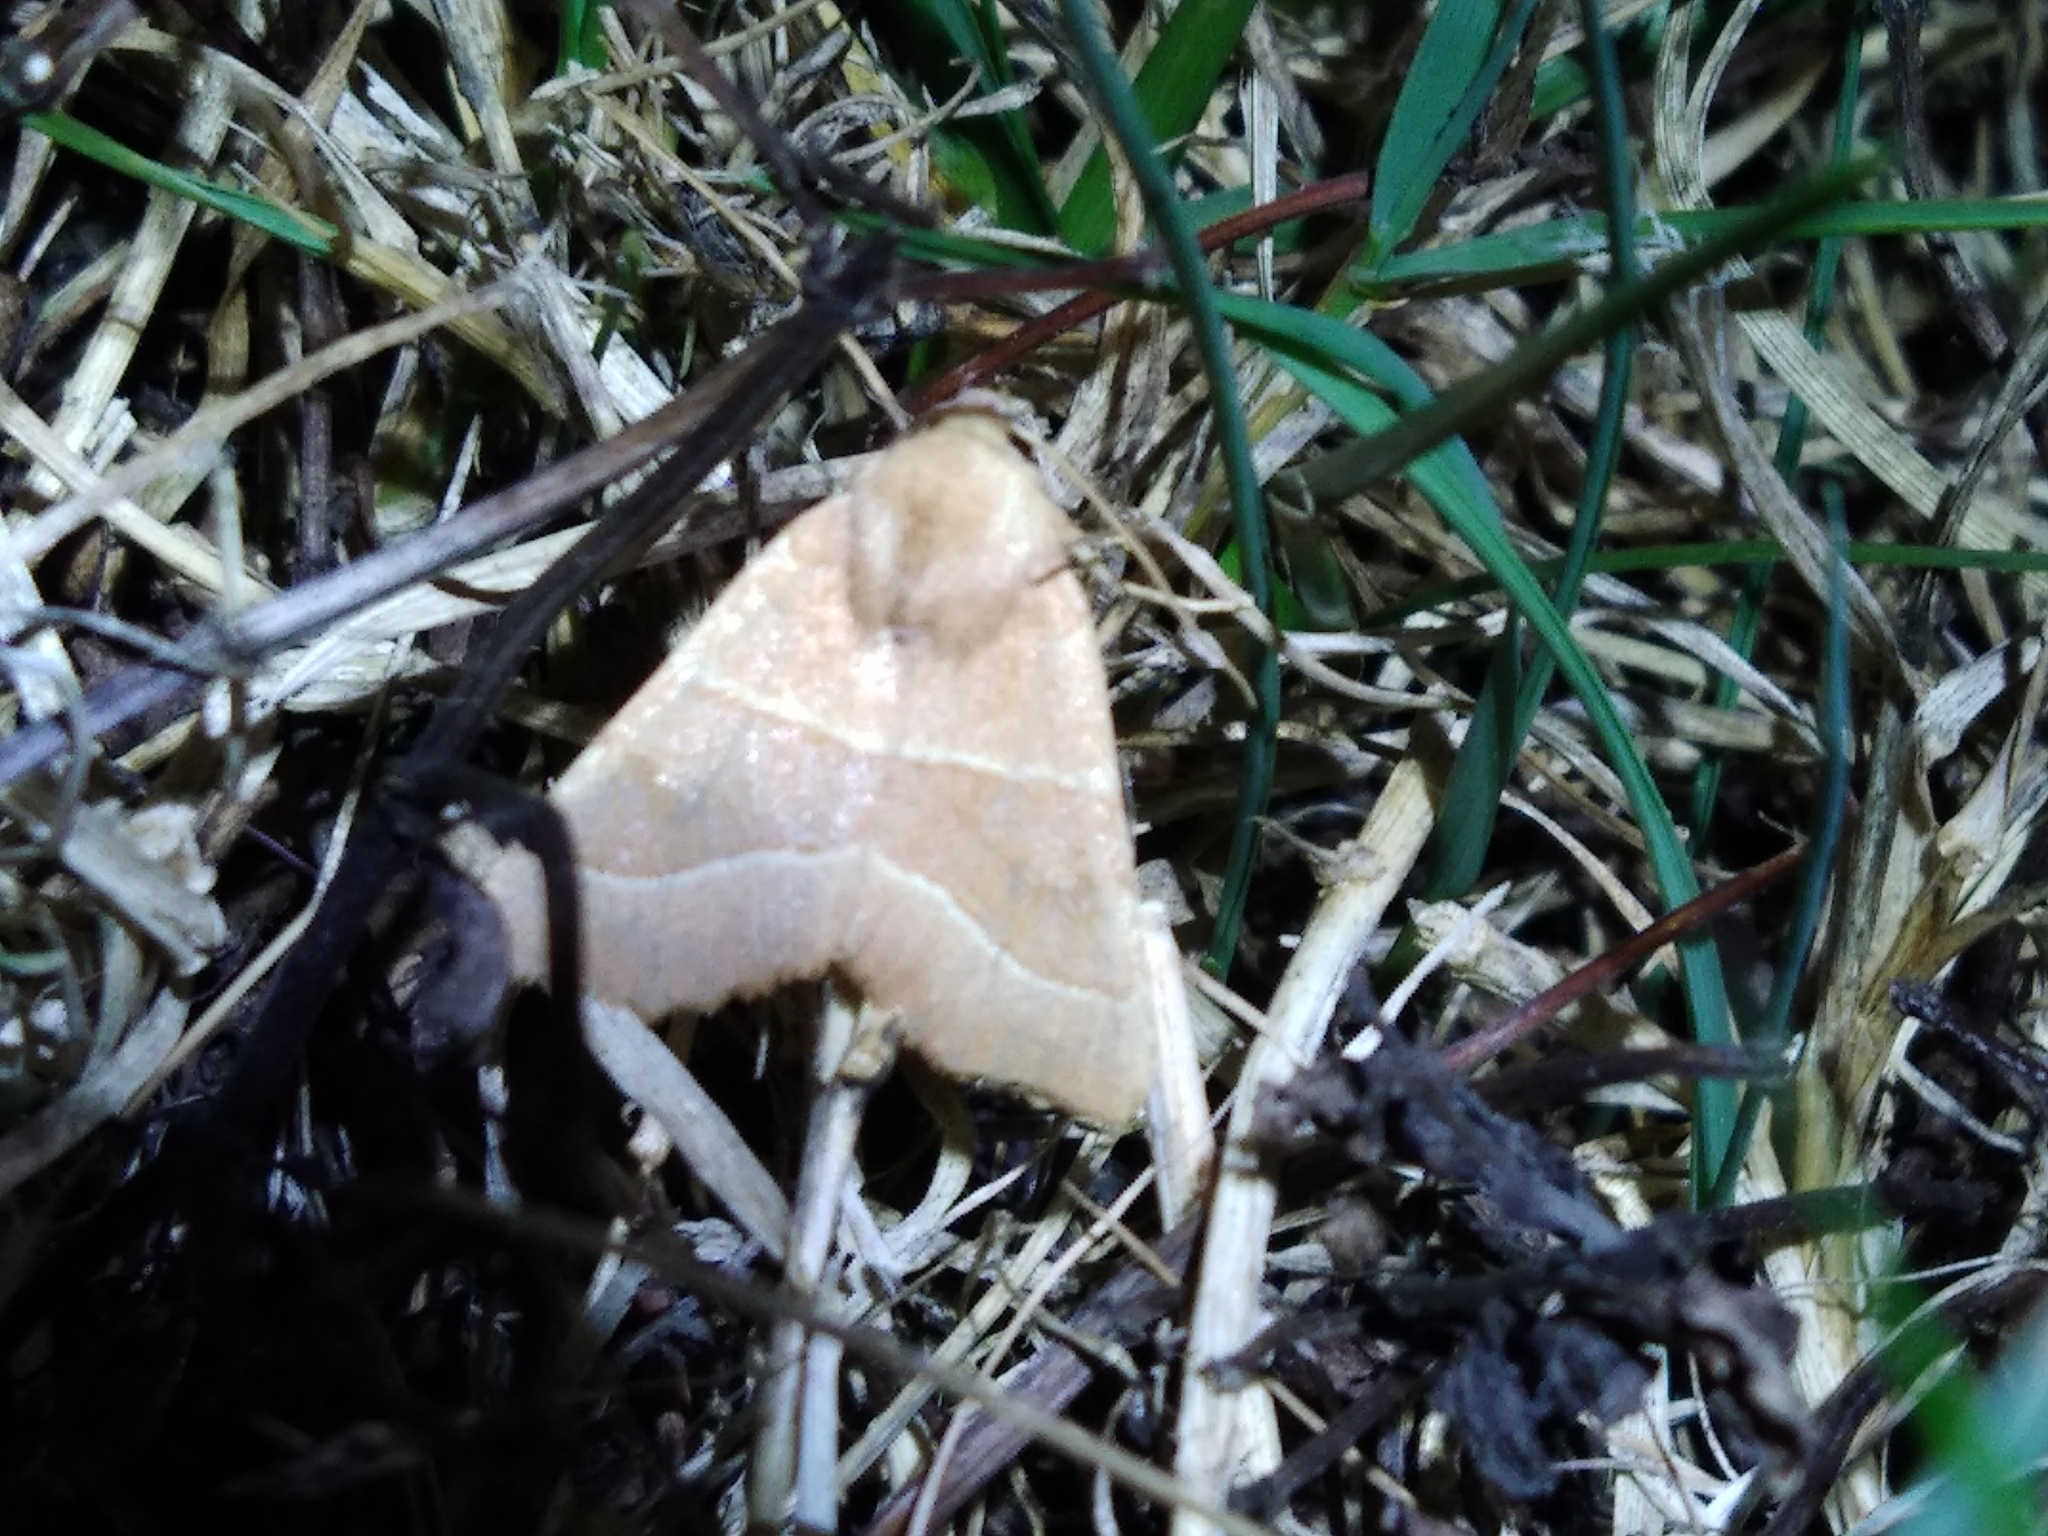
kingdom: Animalia
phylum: Arthropoda
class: Insecta
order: Lepidoptera
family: Noctuidae
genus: Atethmia
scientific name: Atethmia centrago
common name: Centre-barred sallow
